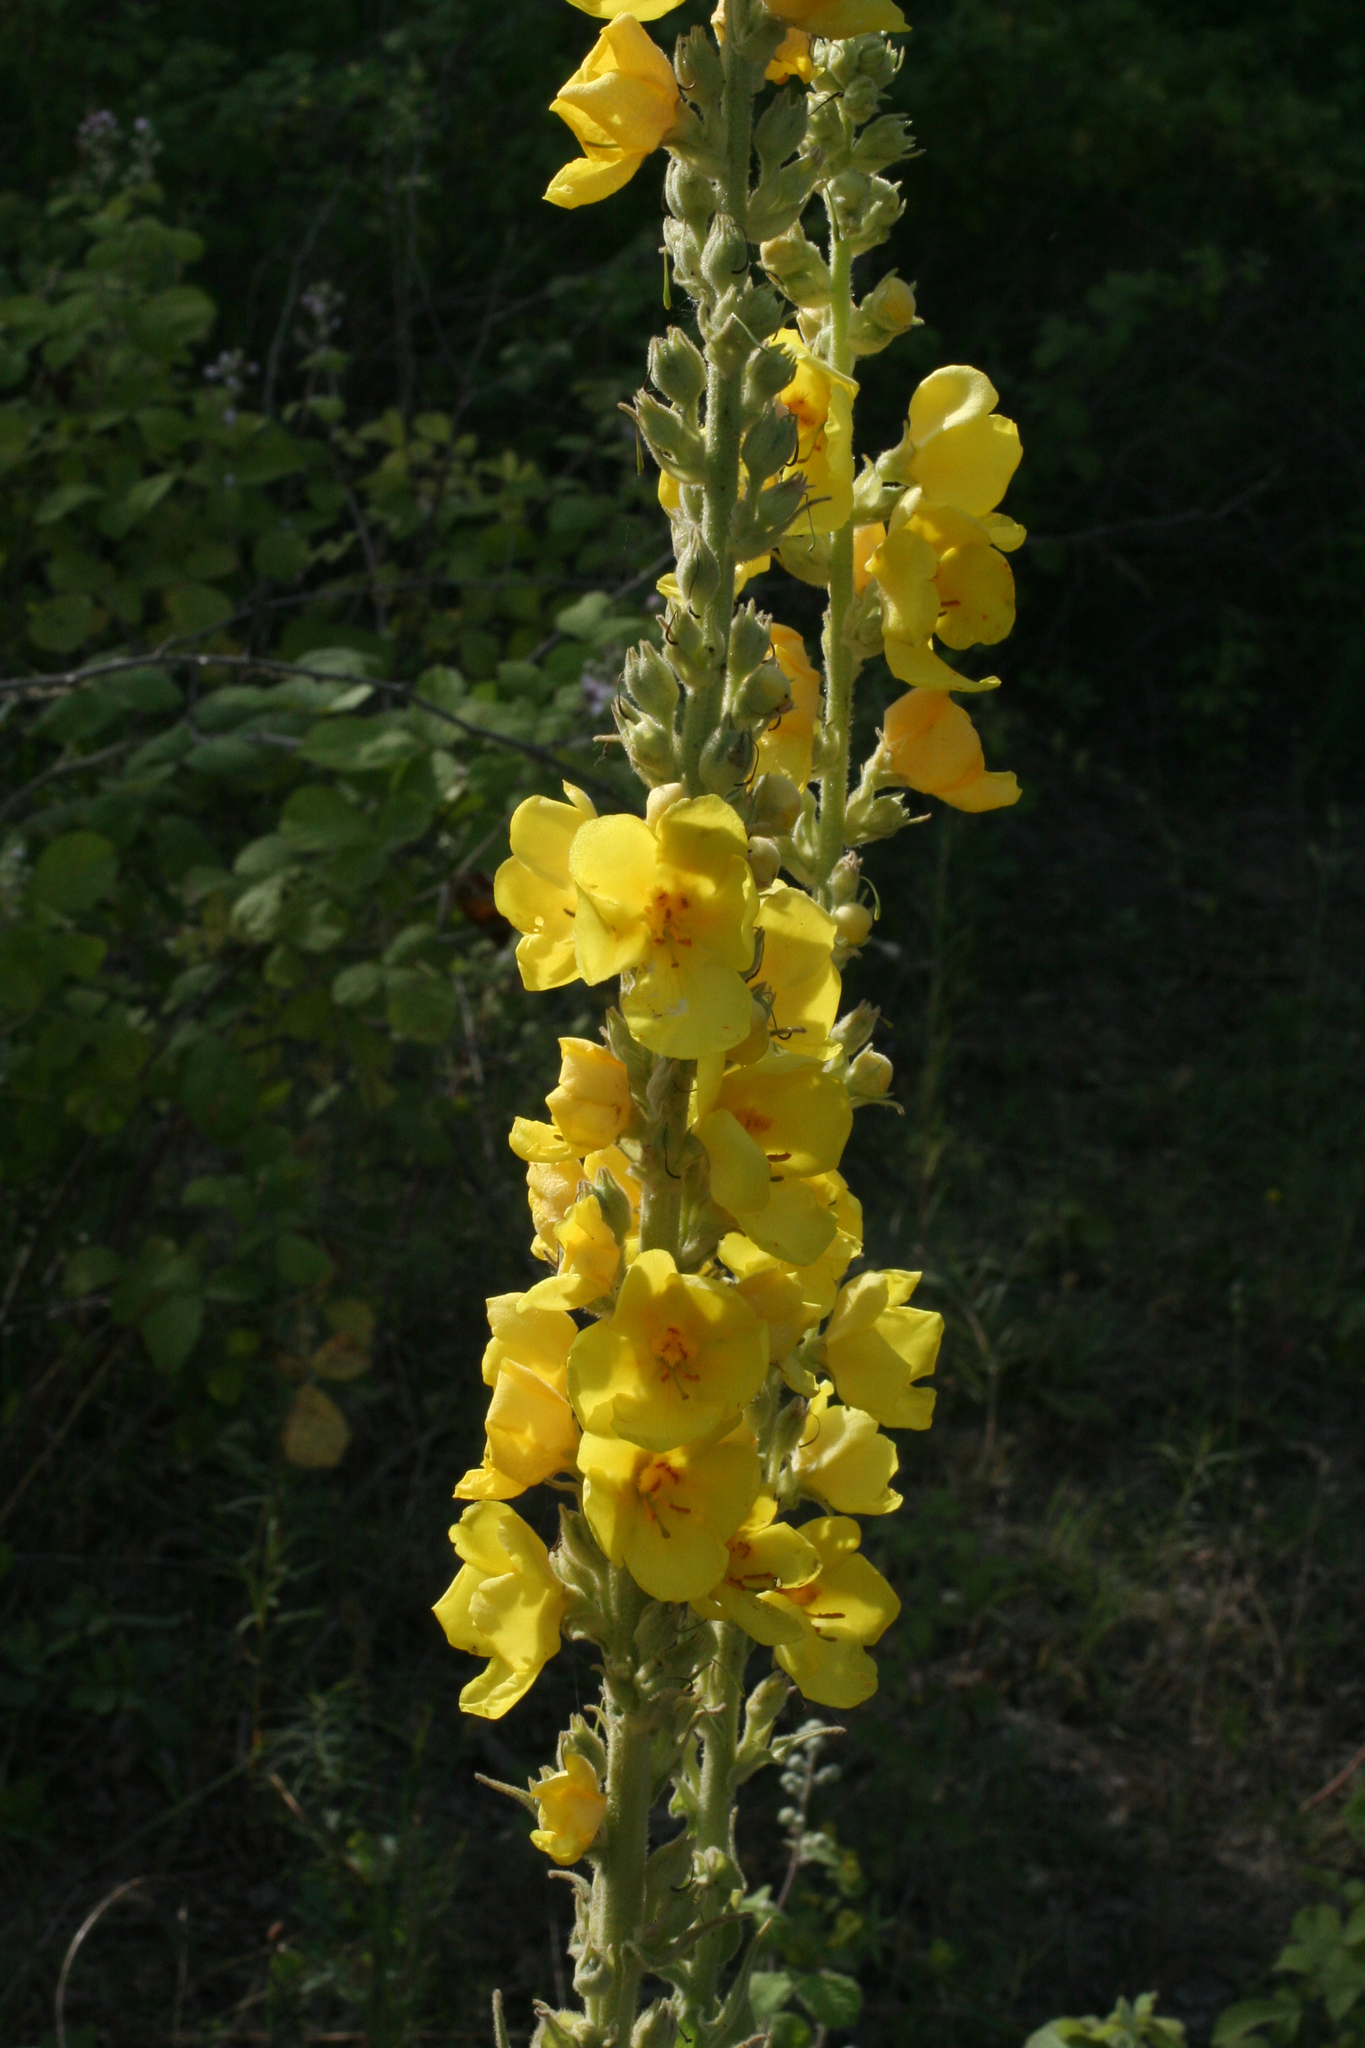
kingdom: Plantae
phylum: Tracheophyta
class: Magnoliopsida
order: Lamiales
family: Scrophulariaceae
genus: Verbascum
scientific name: Verbascum phlomoides
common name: Orange mullein
